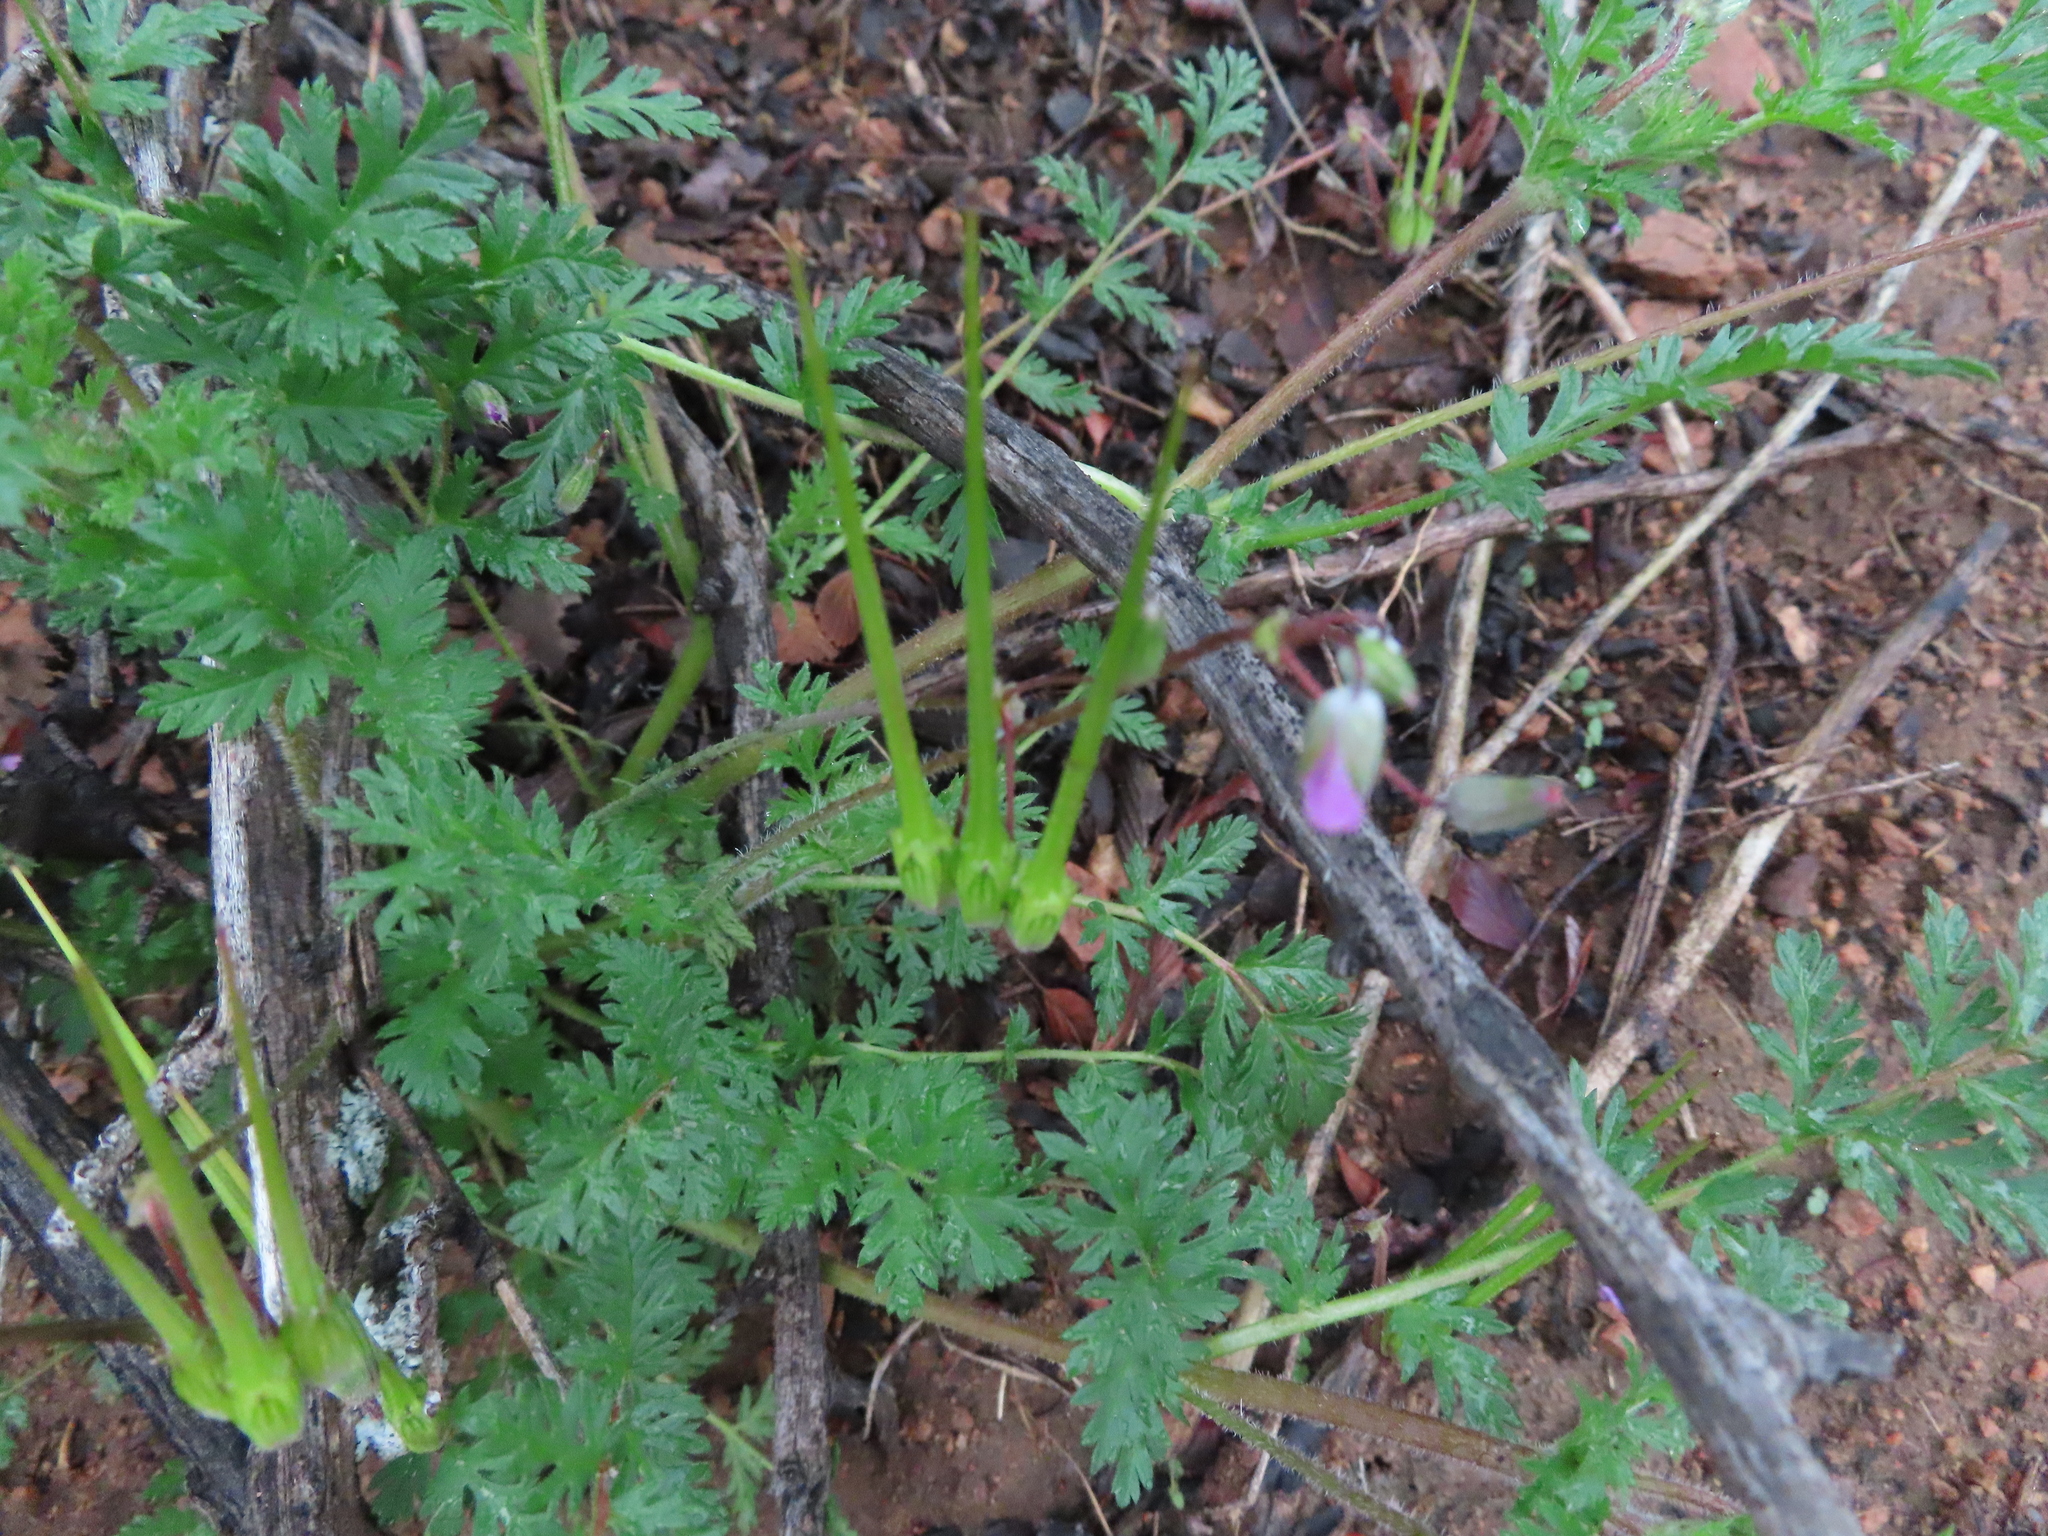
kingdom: Plantae
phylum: Tracheophyta
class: Magnoliopsida
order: Geraniales
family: Geraniaceae
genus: Erodium
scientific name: Erodium cicutarium
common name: Common stork's-bill
